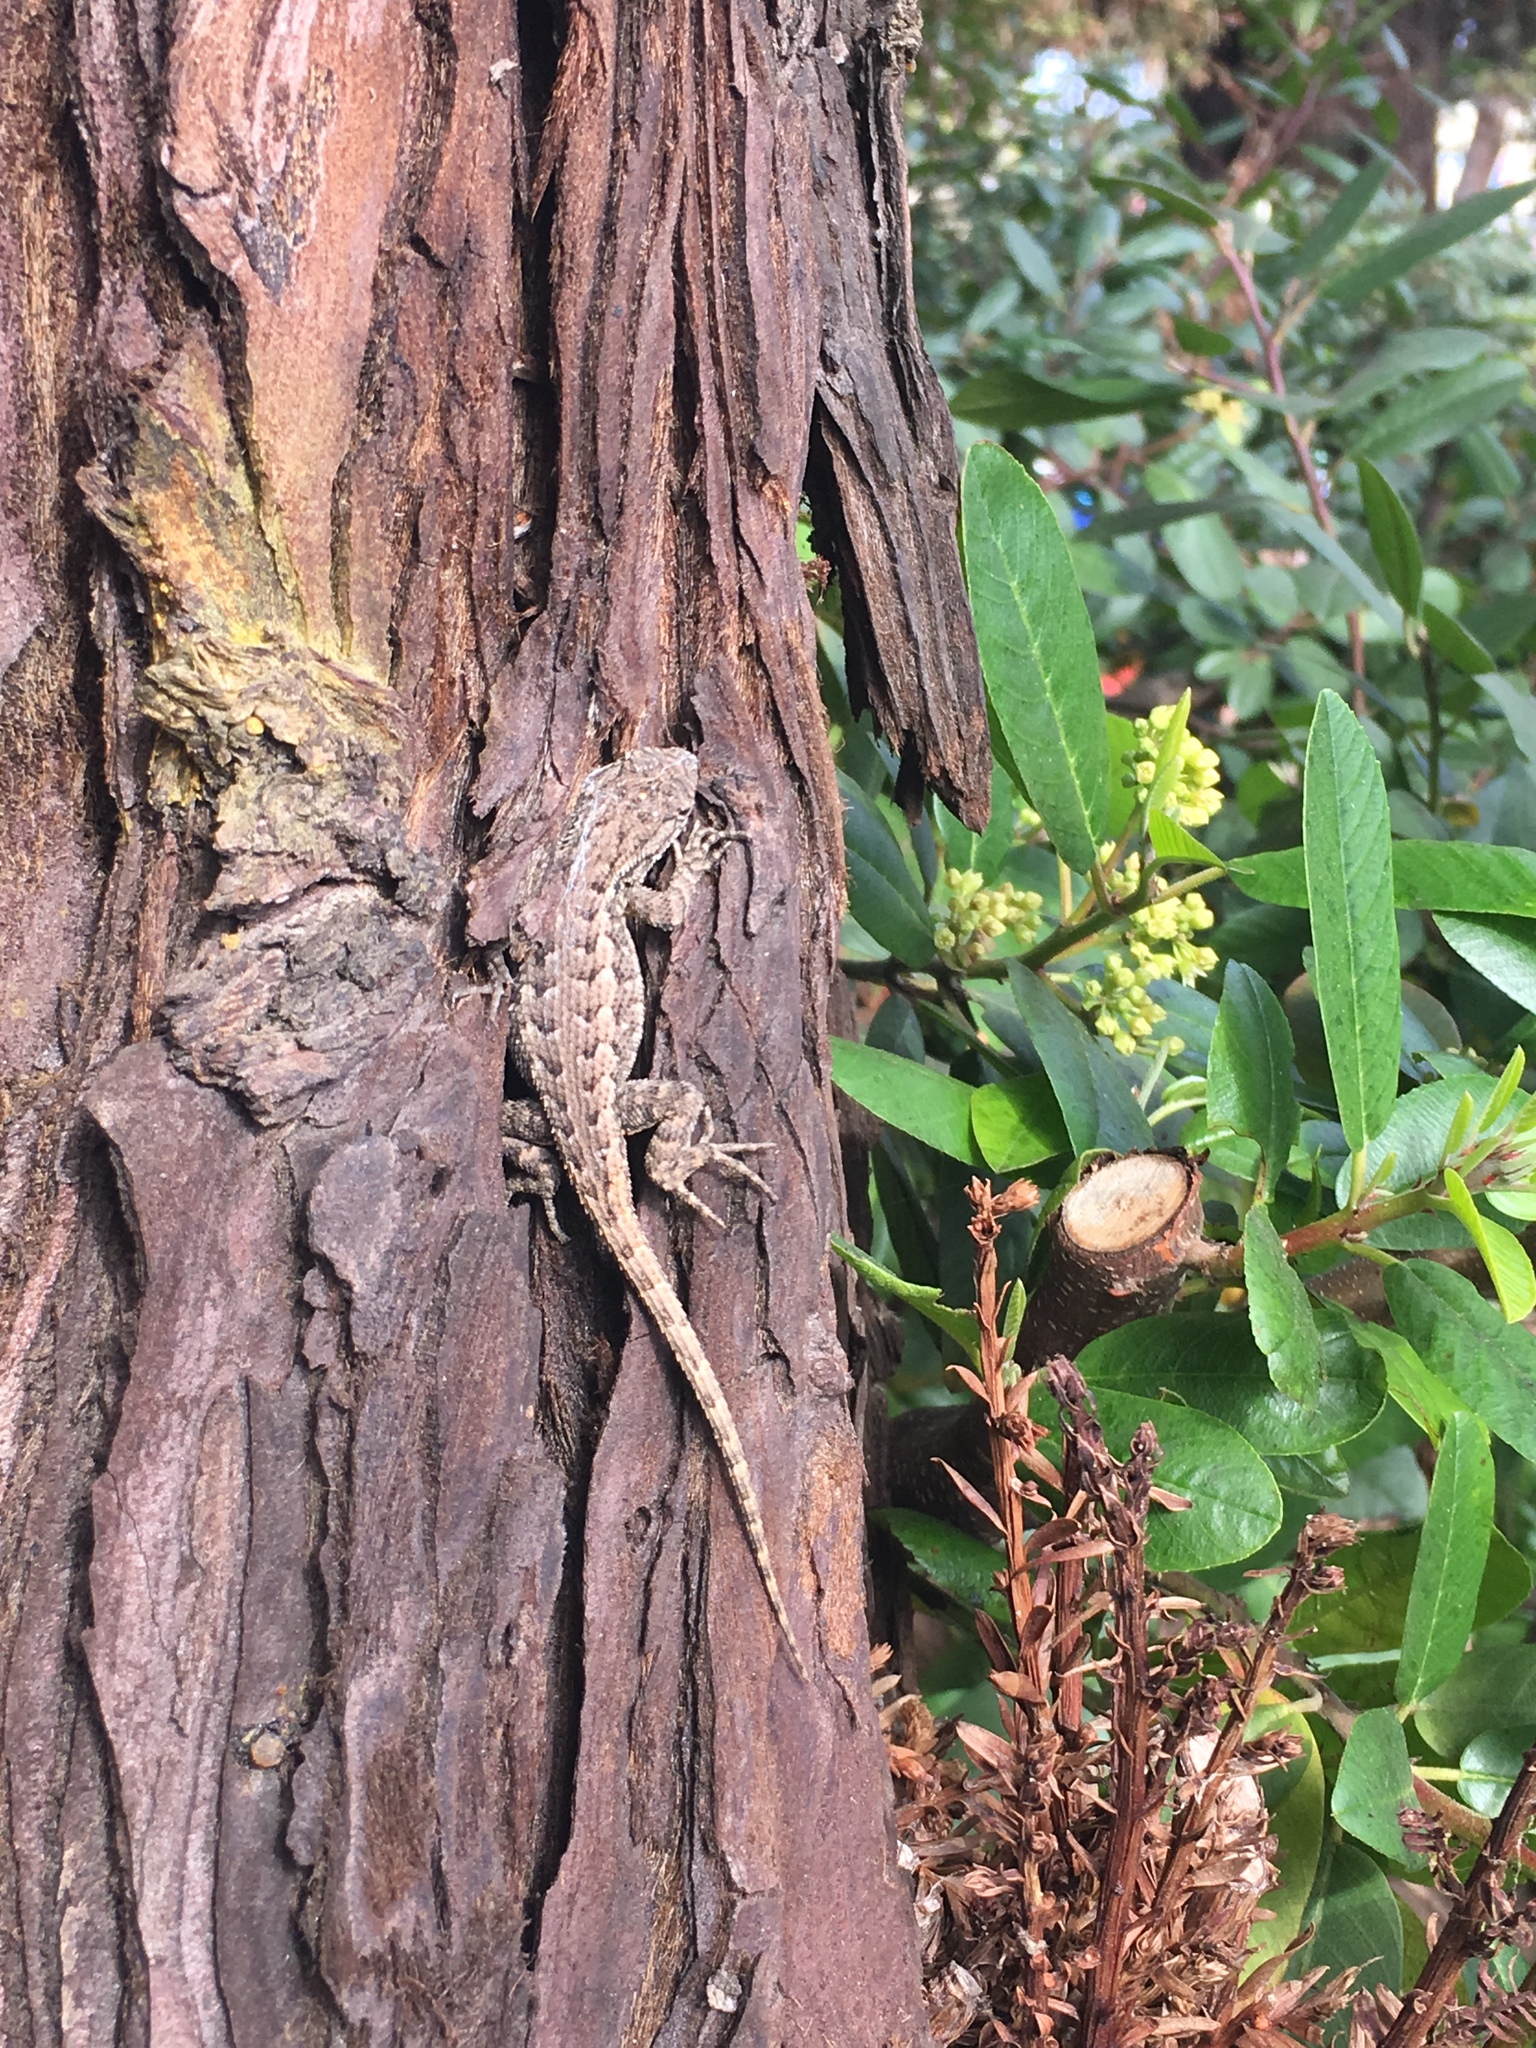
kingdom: Animalia
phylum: Chordata
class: Squamata
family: Phrynosomatidae
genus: Sceloporus
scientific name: Sceloporus occidentalis
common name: Western fence lizard
